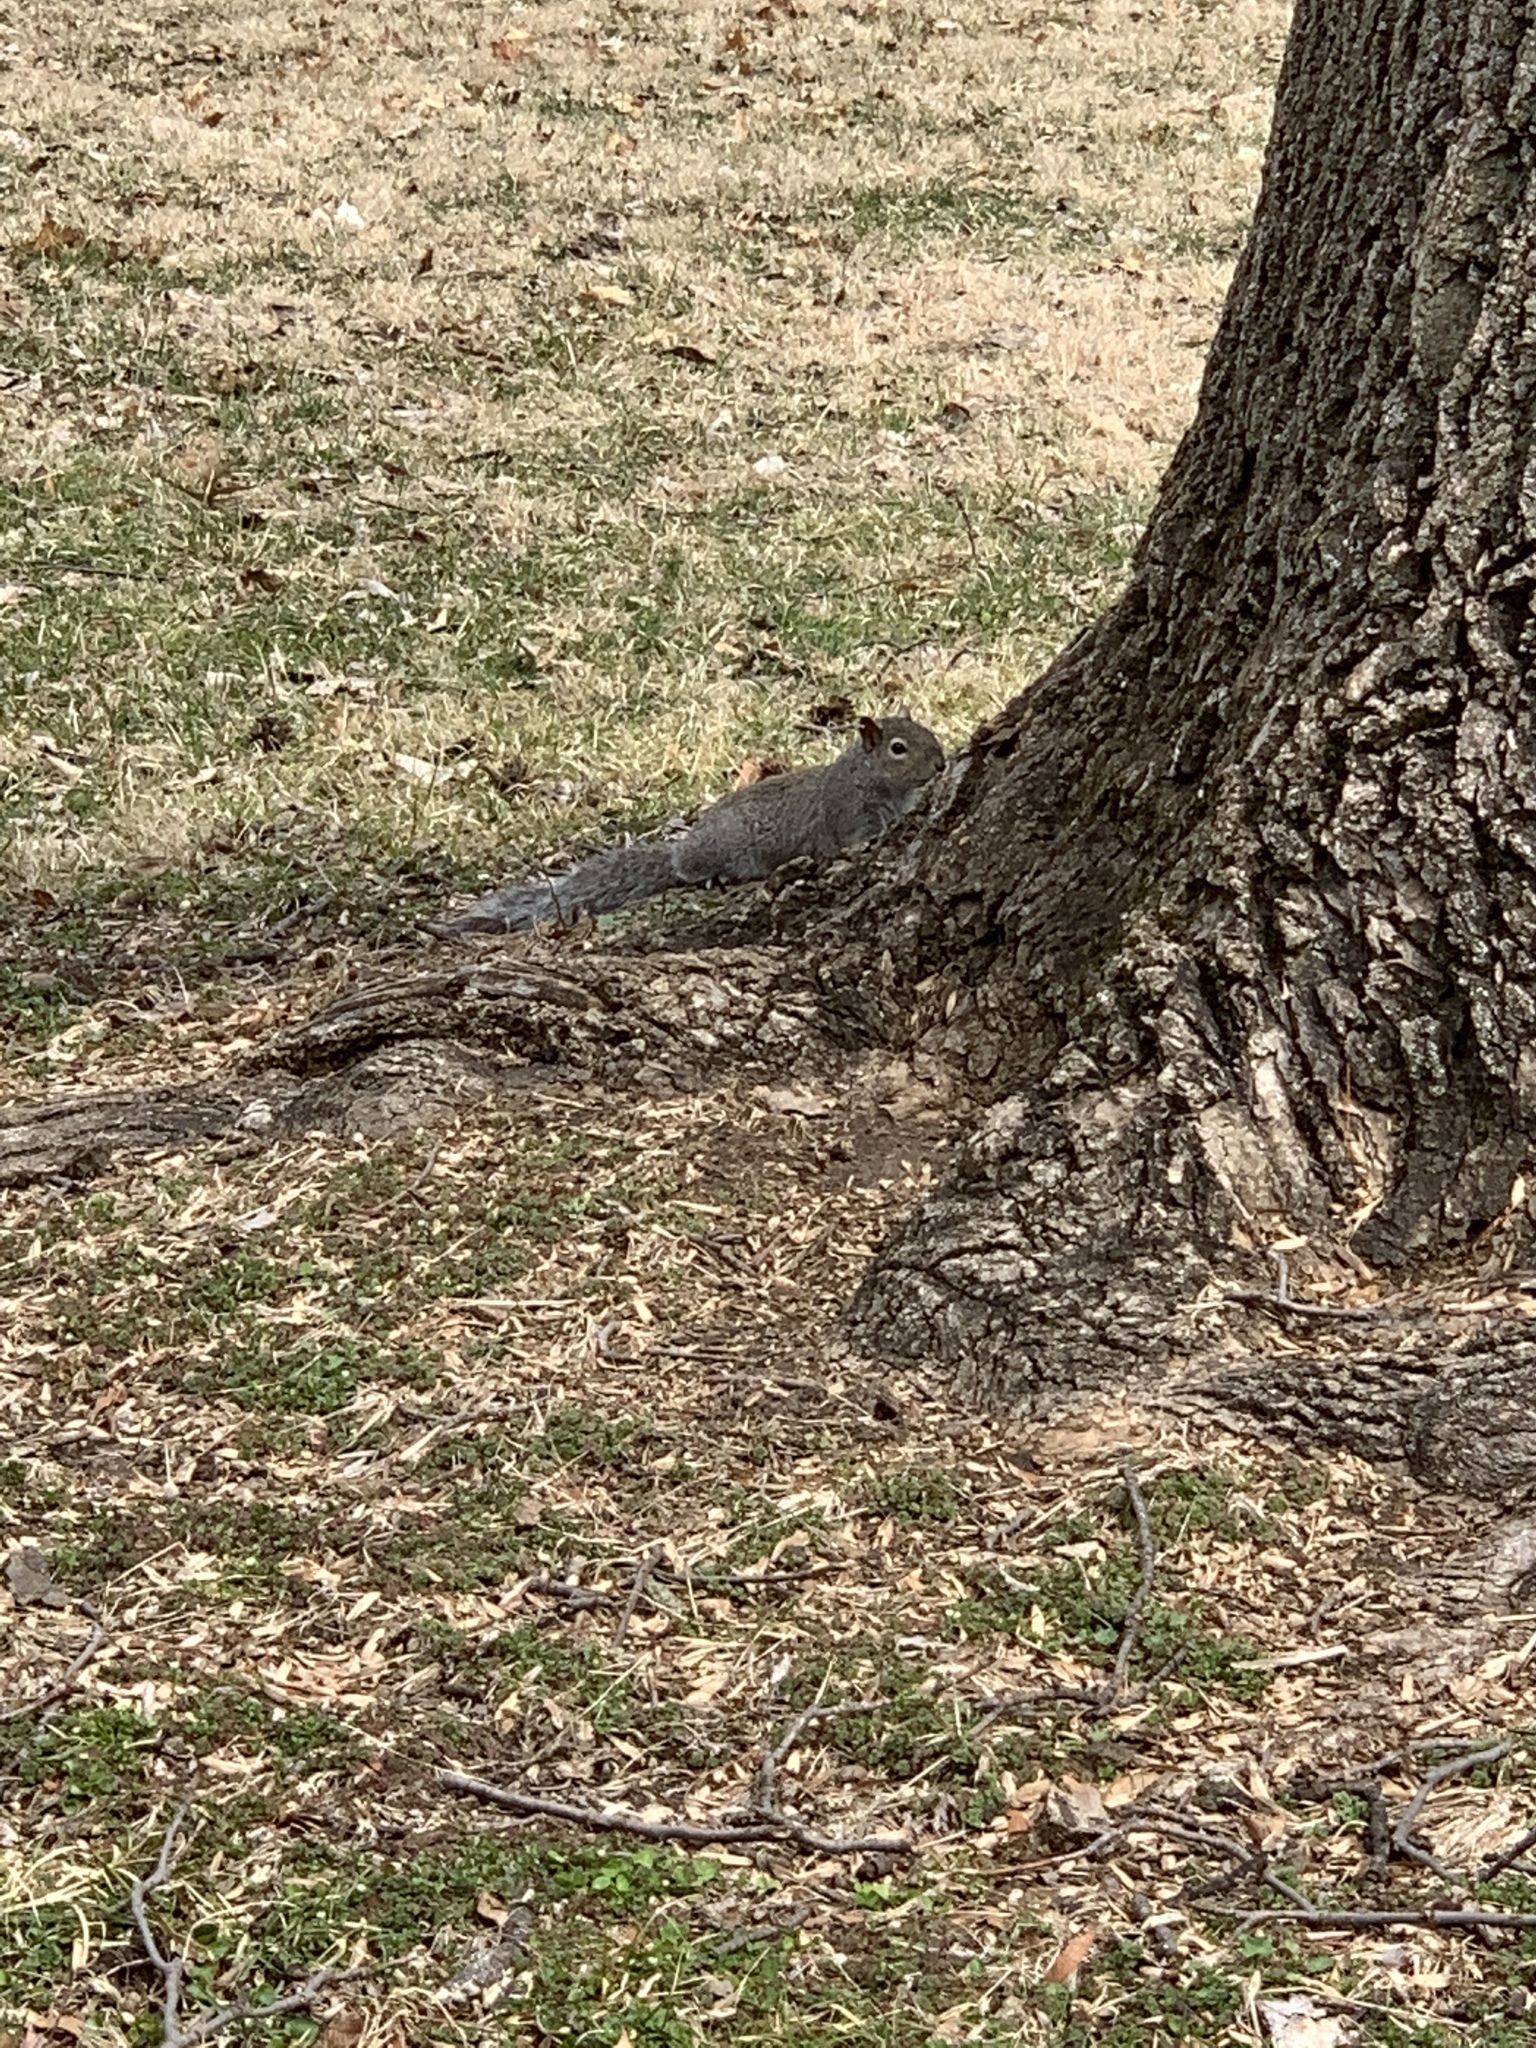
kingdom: Animalia
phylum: Chordata
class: Mammalia
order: Rodentia
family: Sciuridae
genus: Sciurus
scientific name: Sciurus carolinensis
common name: Eastern gray squirrel
